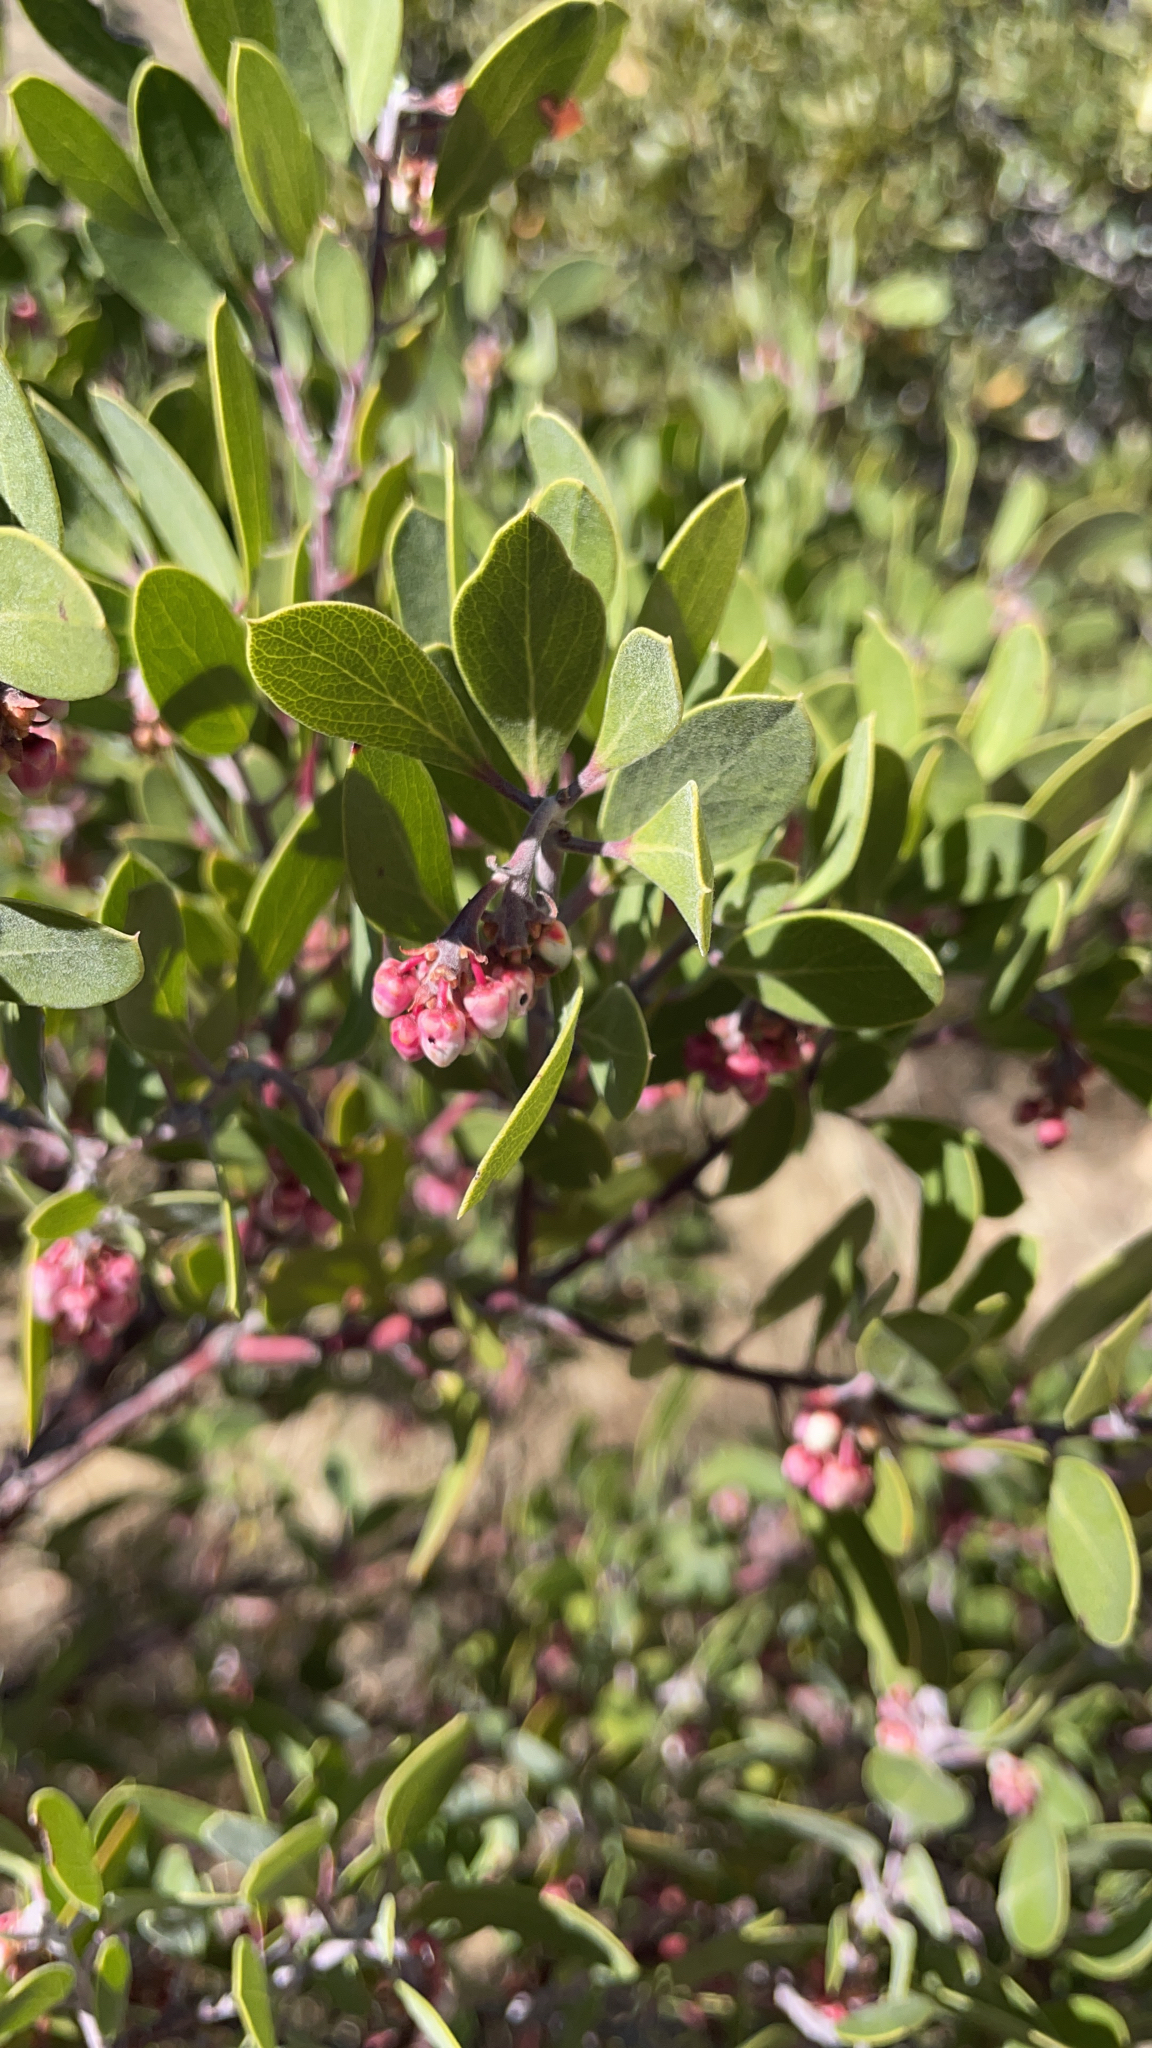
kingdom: Plantae
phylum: Tracheophyta
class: Magnoliopsida
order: Ericales
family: Ericaceae
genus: Arctostaphylos
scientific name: Arctostaphylos pungens
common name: Mexican manzanita
